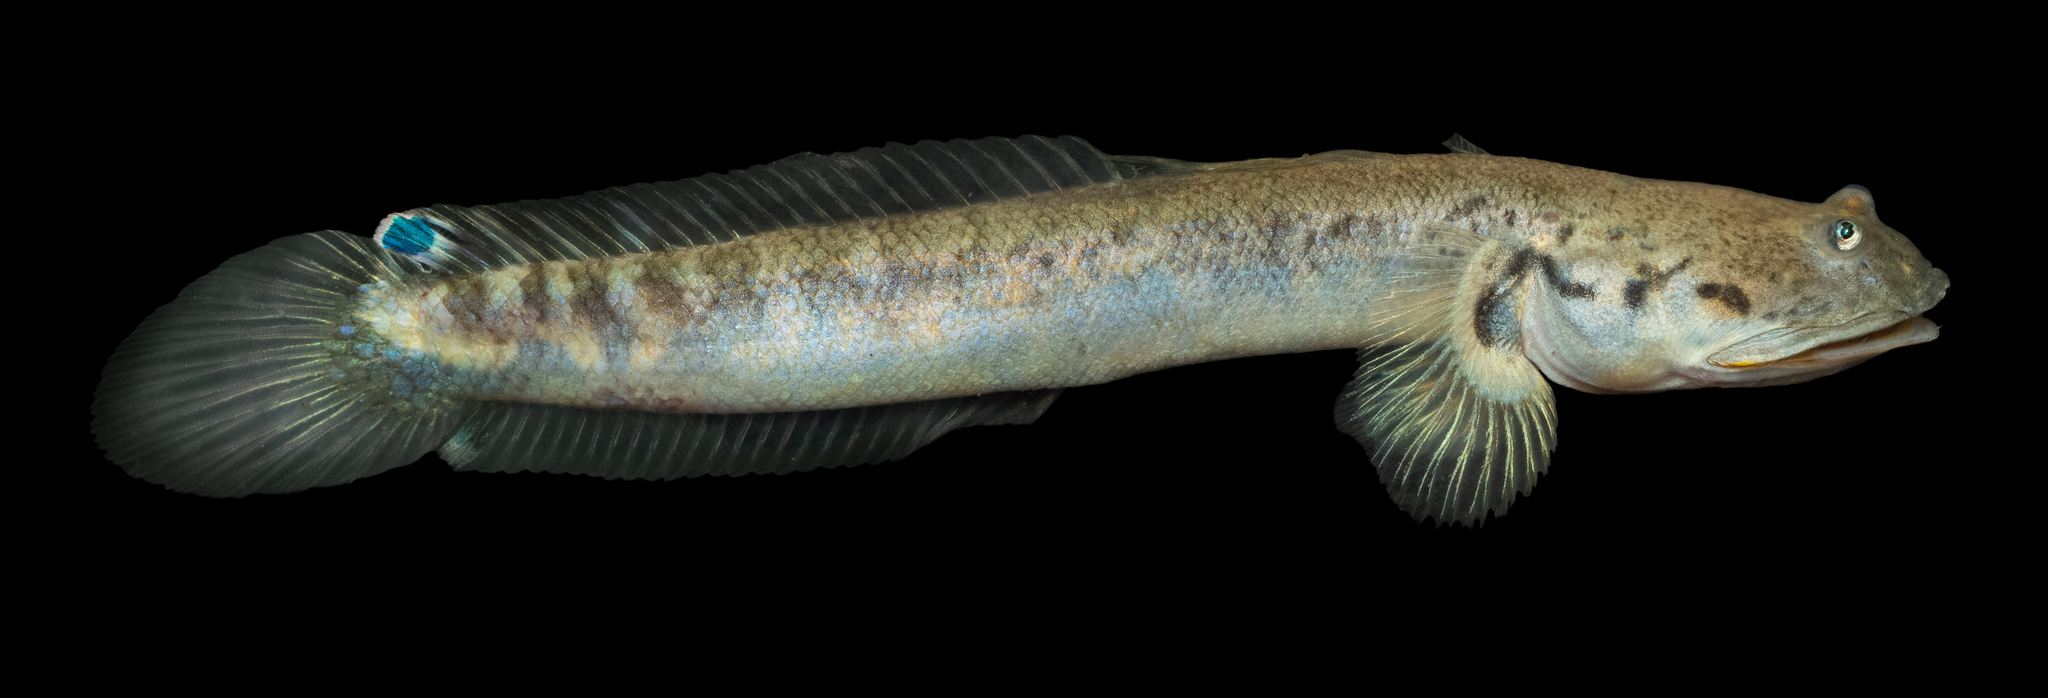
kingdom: Animalia
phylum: Chordata
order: Perciformes
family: Gobiidae
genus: Oxuderces
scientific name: Oxuderces wirzi
